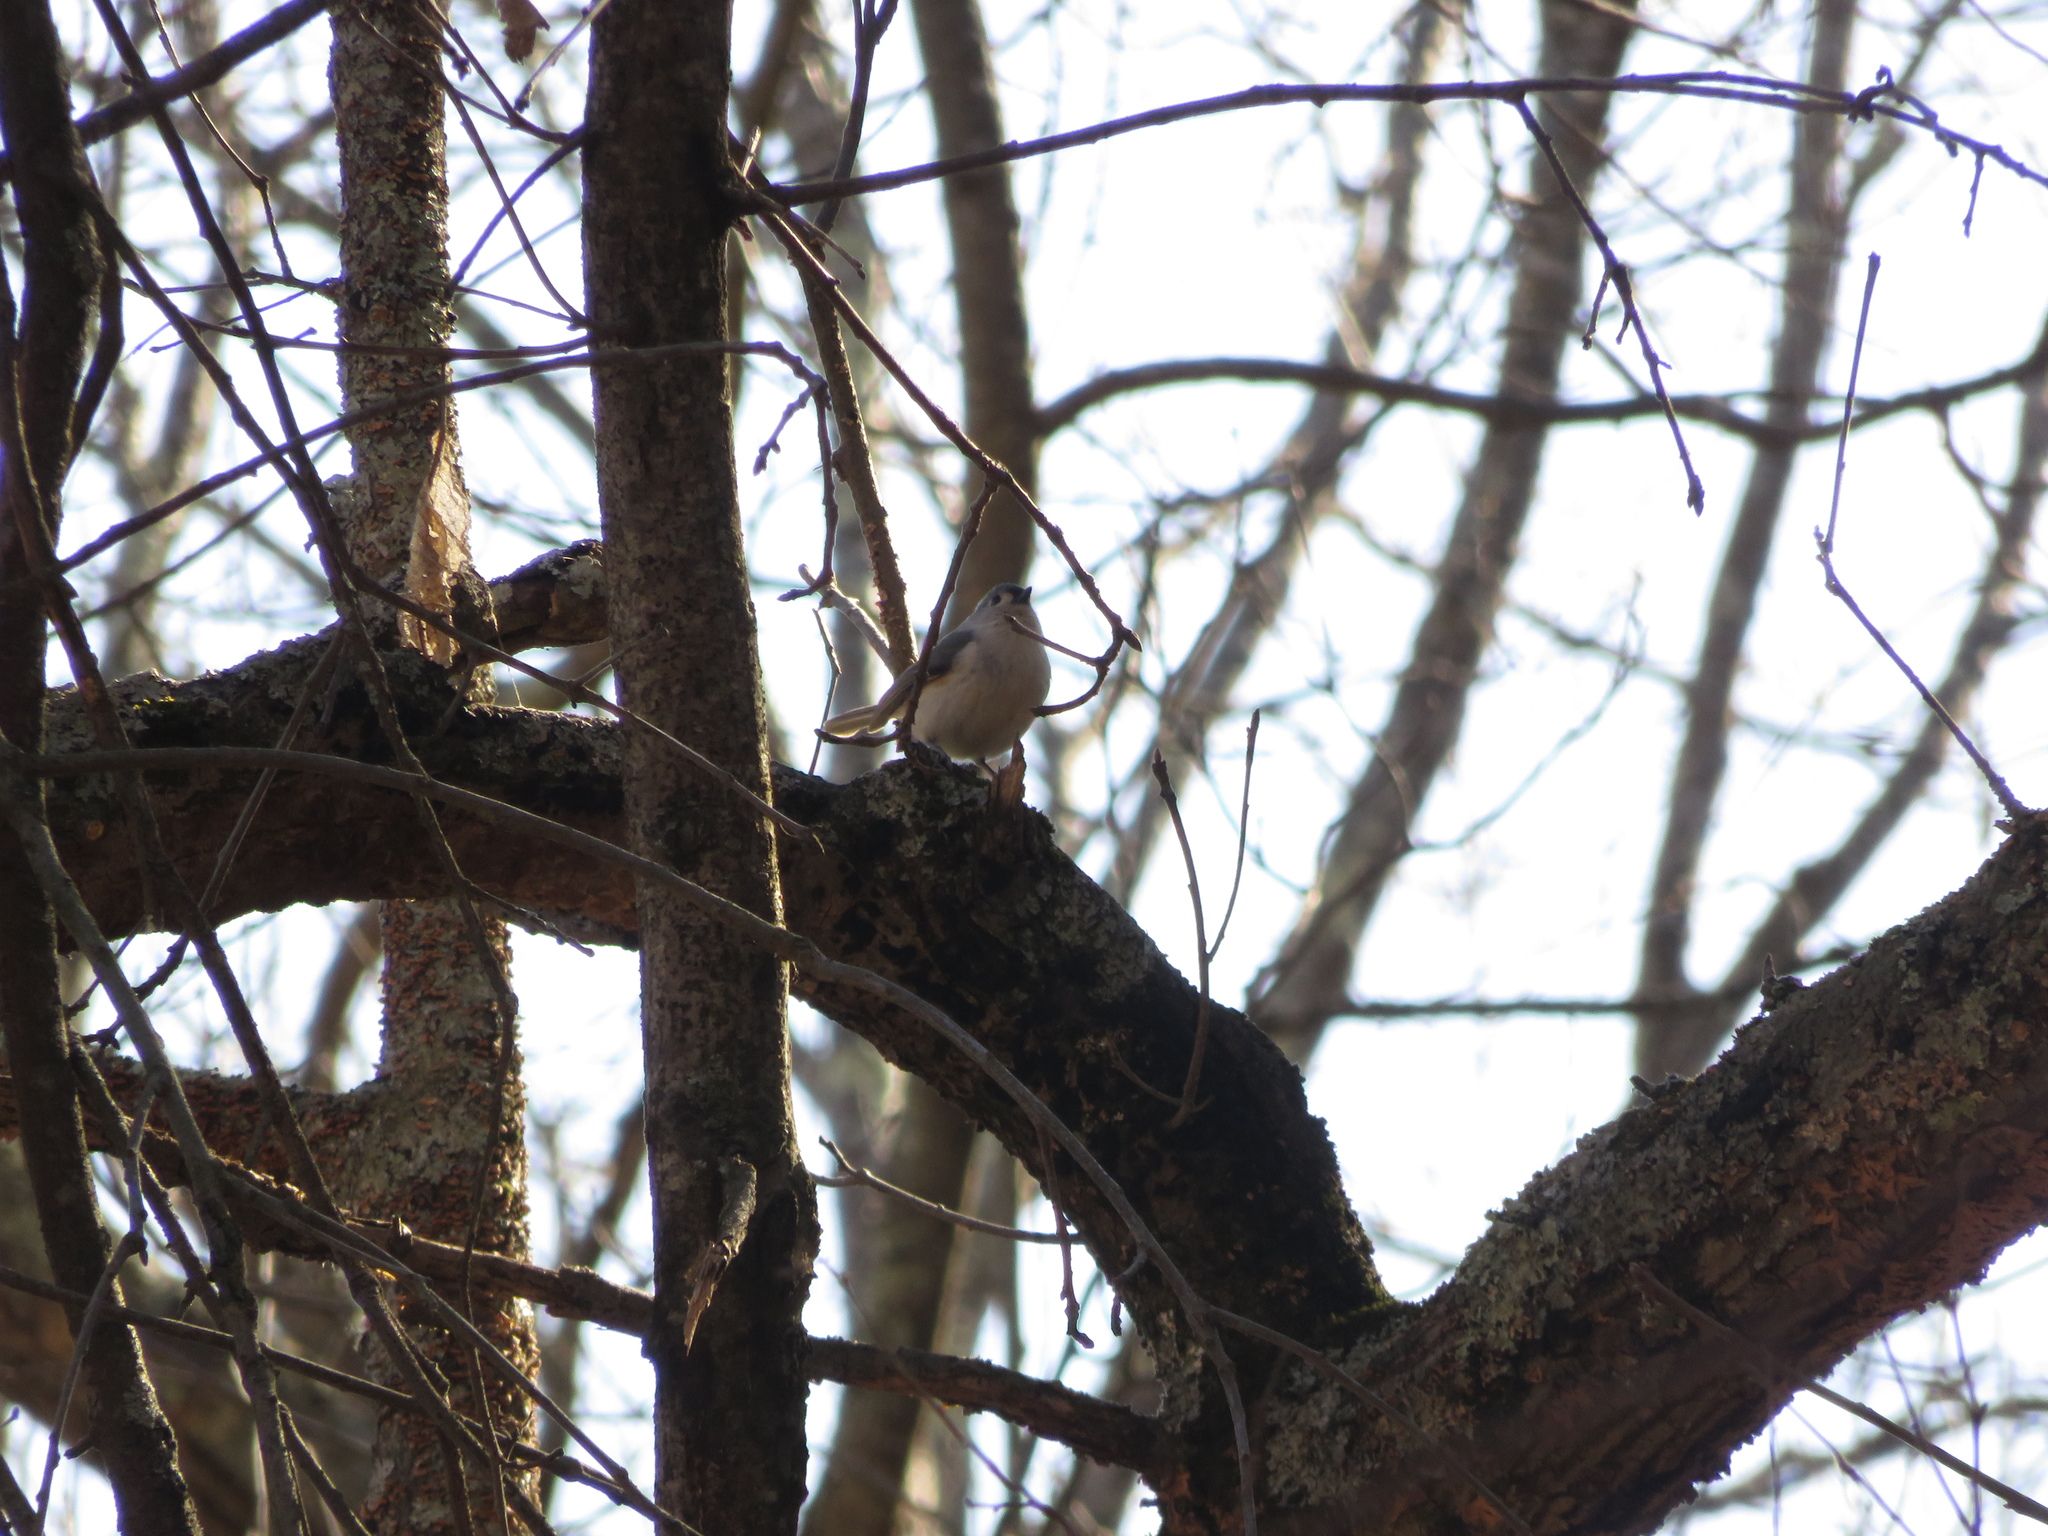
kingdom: Animalia
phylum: Chordata
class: Aves
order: Passeriformes
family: Paridae
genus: Baeolophus
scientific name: Baeolophus bicolor
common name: Tufted titmouse
